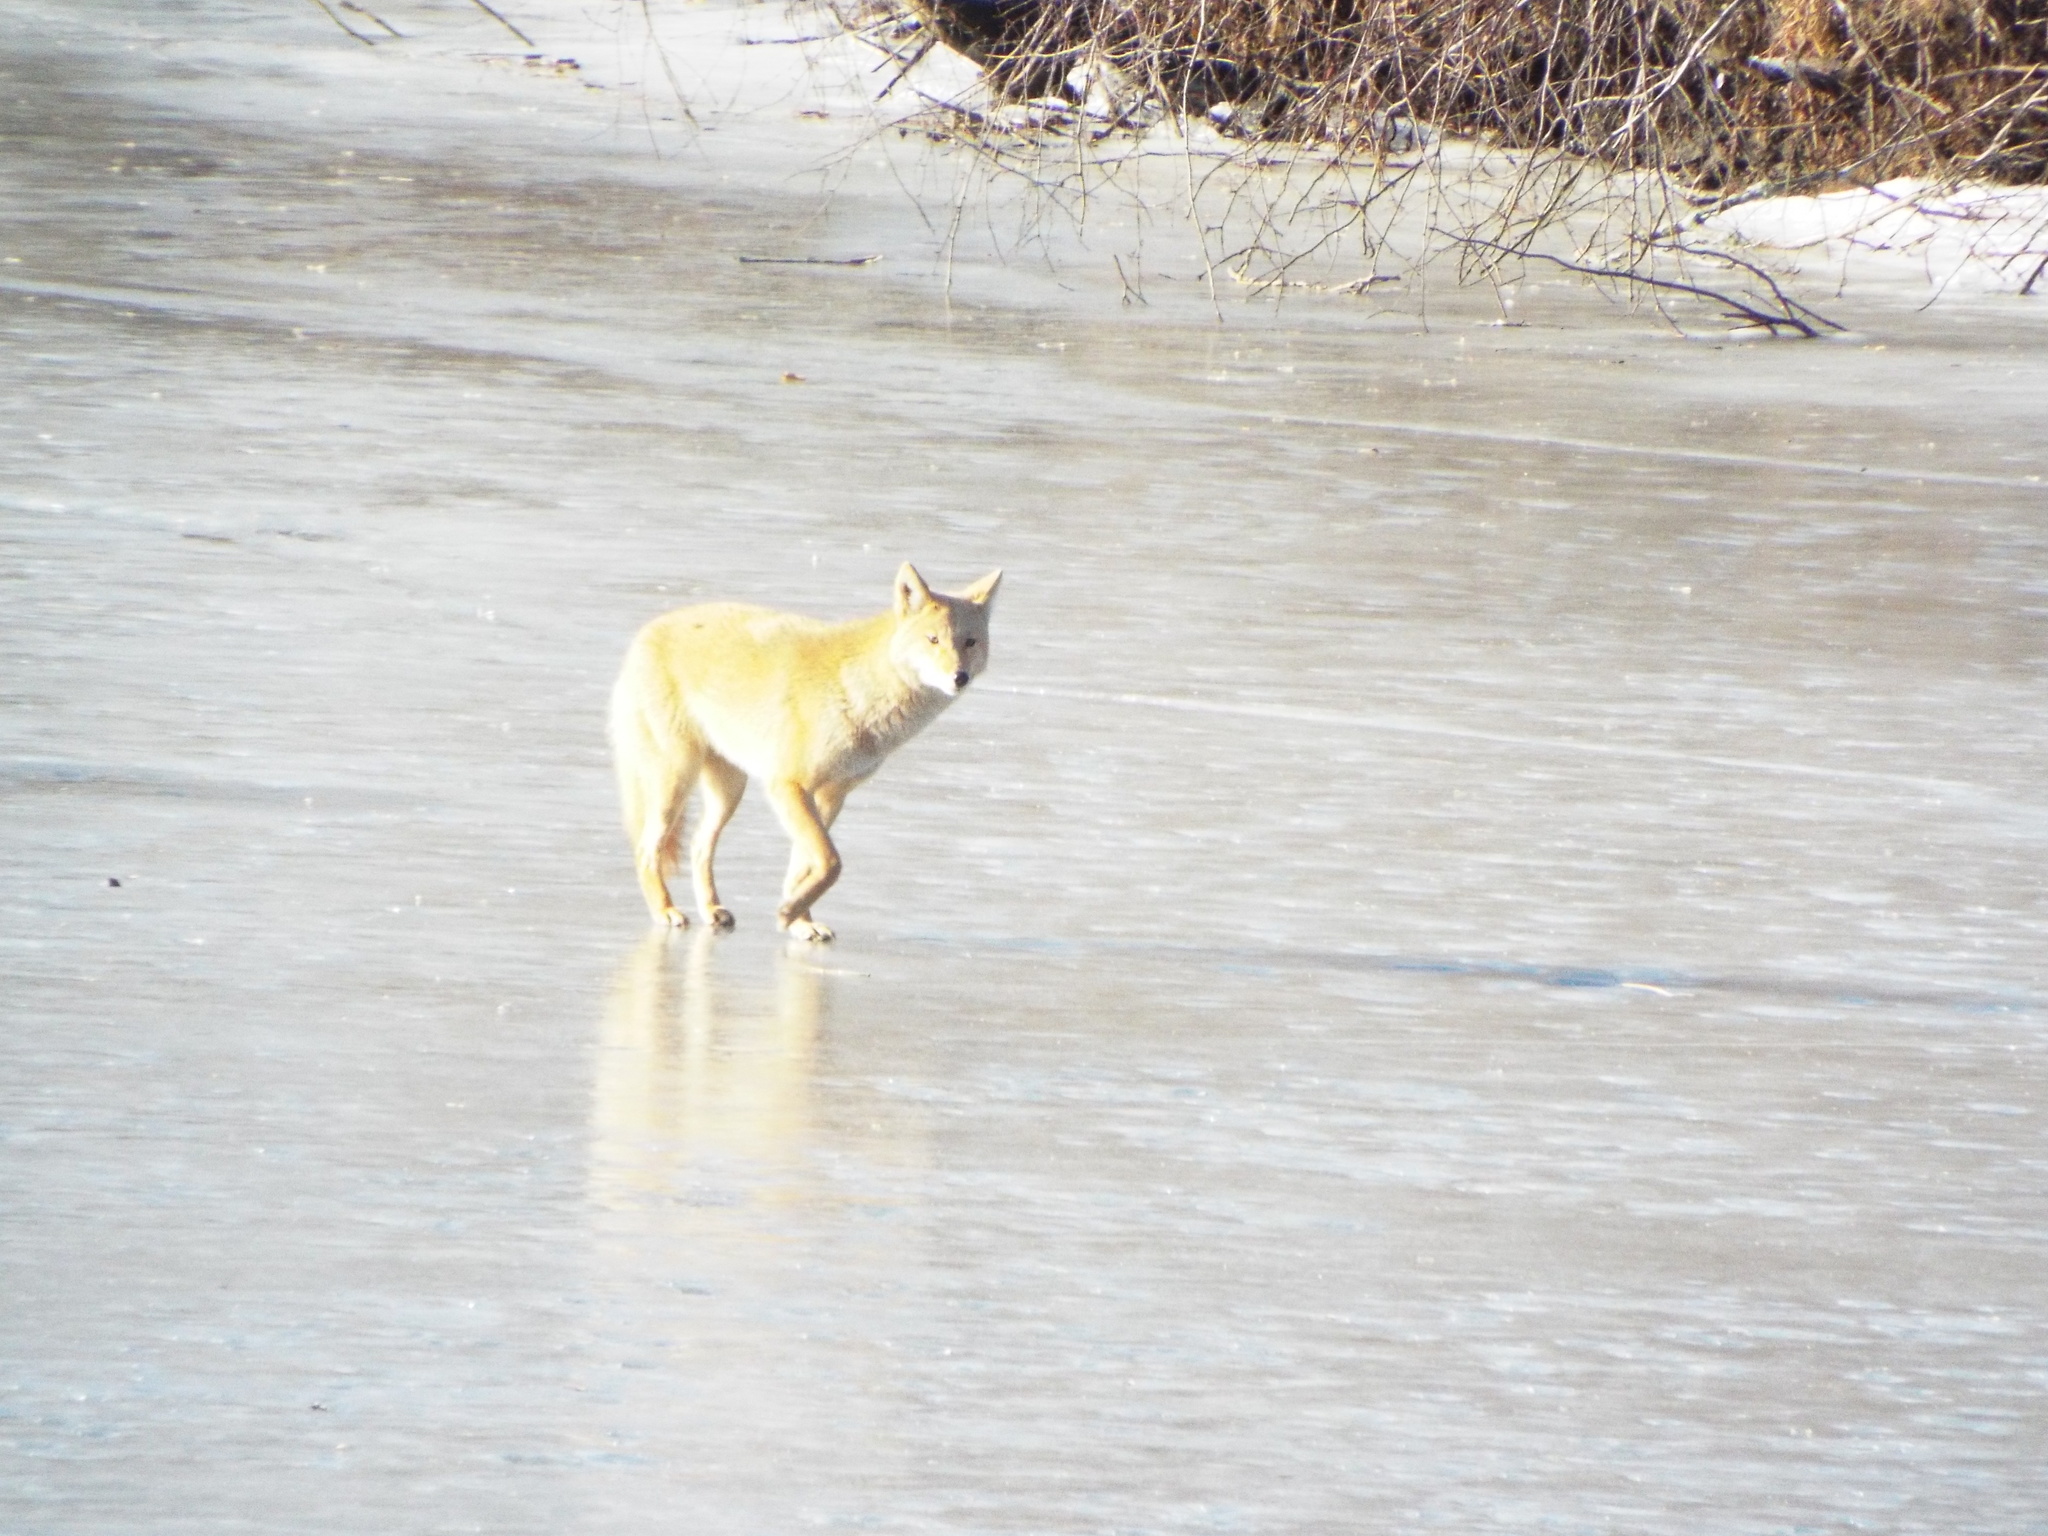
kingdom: Animalia
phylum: Chordata
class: Mammalia
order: Carnivora
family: Canidae
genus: Canis
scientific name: Canis latrans
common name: Coyote
